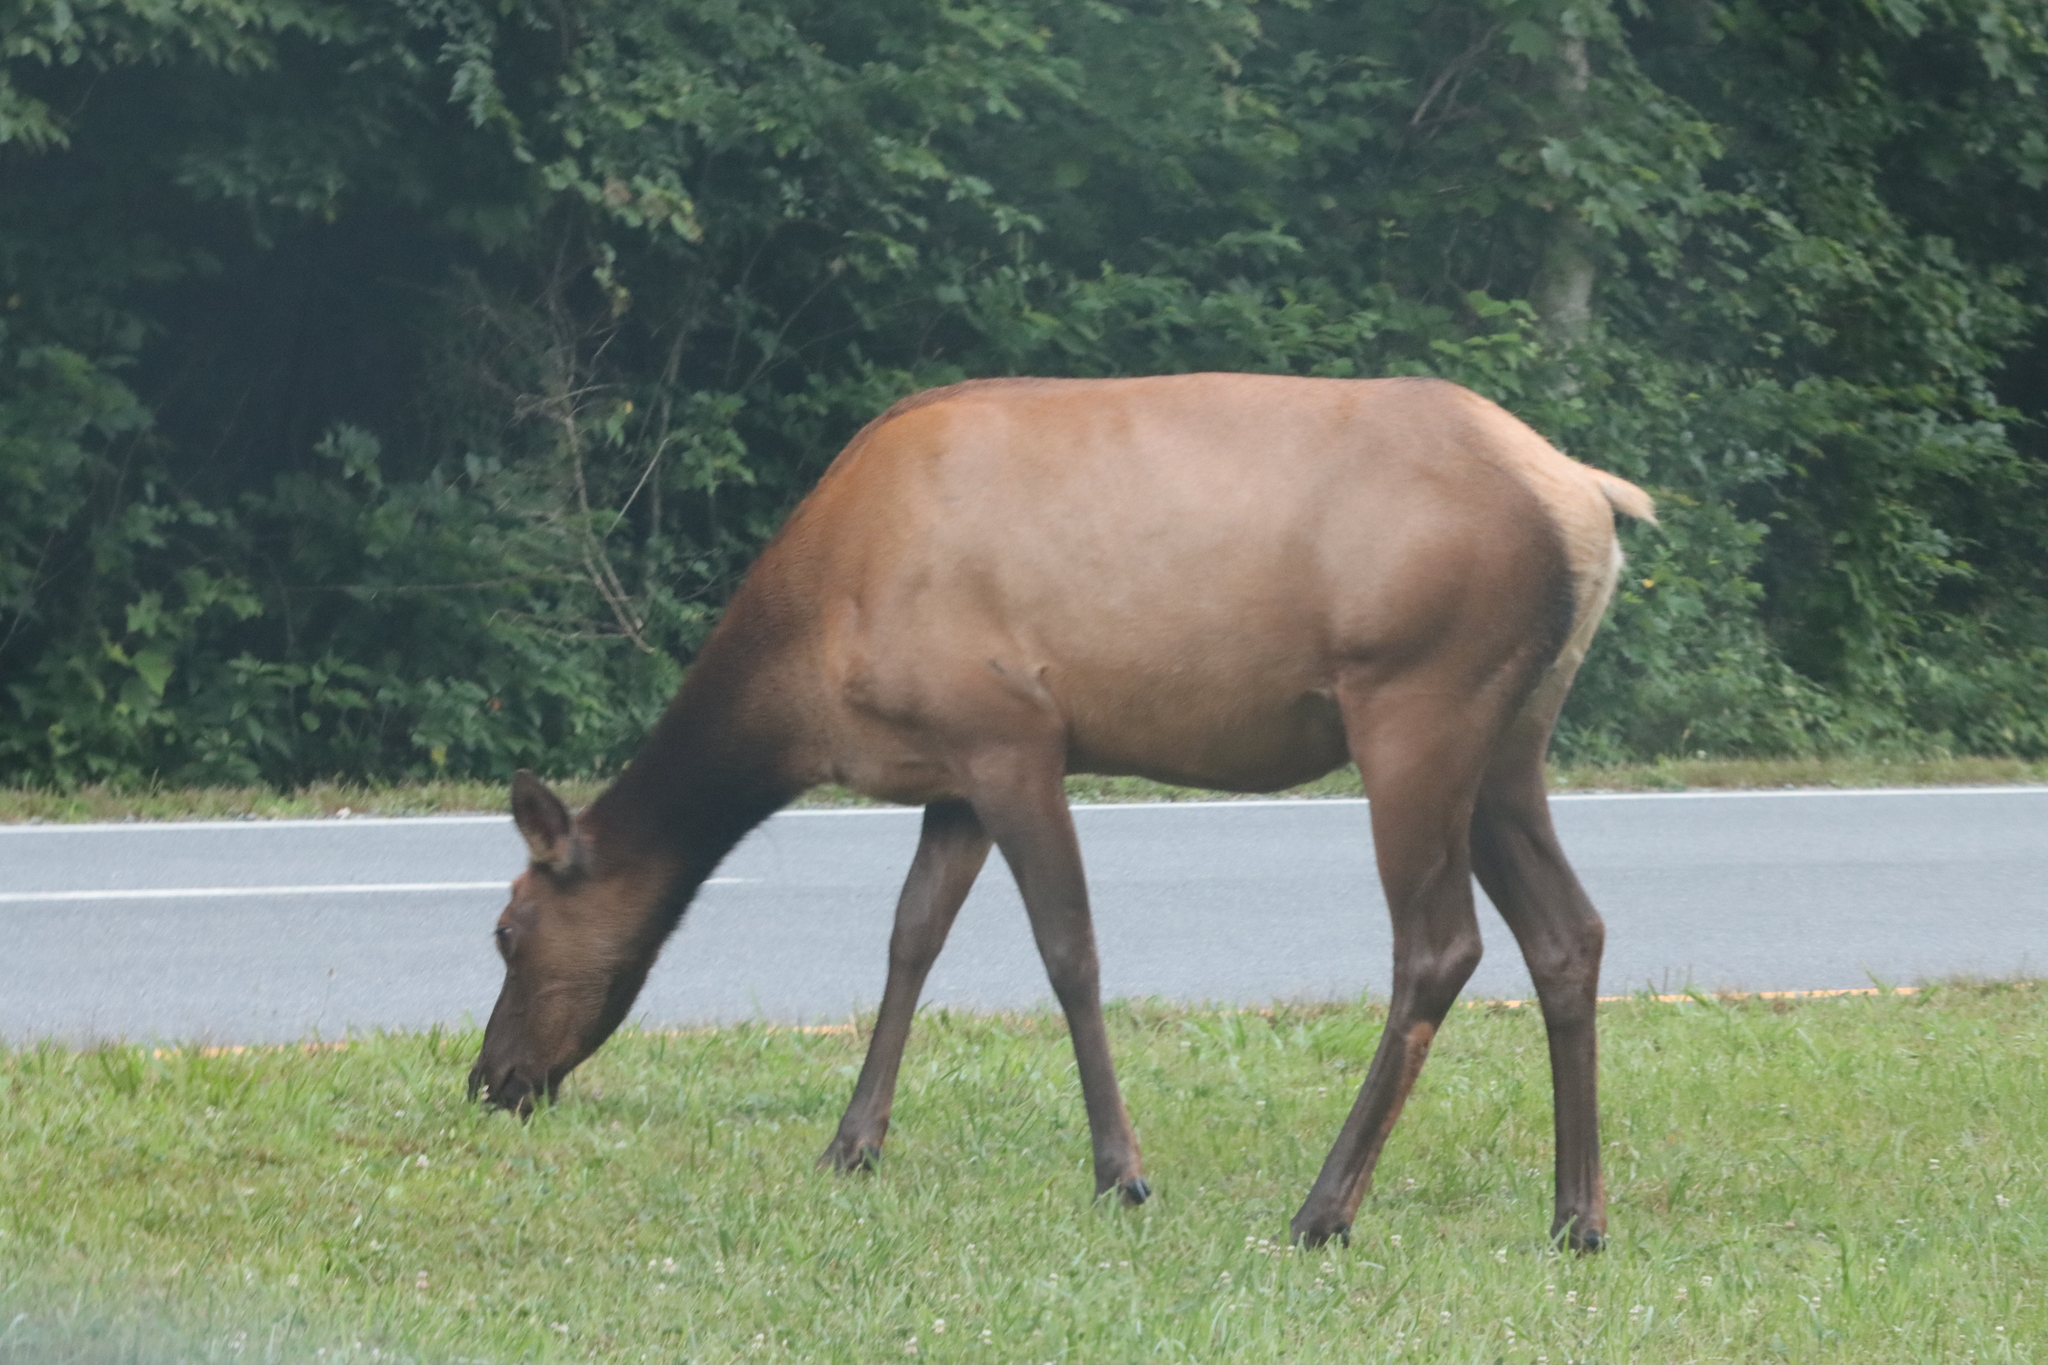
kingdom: Animalia
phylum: Chordata
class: Mammalia
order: Artiodactyla
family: Cervidae
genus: Cervus
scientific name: Cervus elaphus
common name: Red deer
